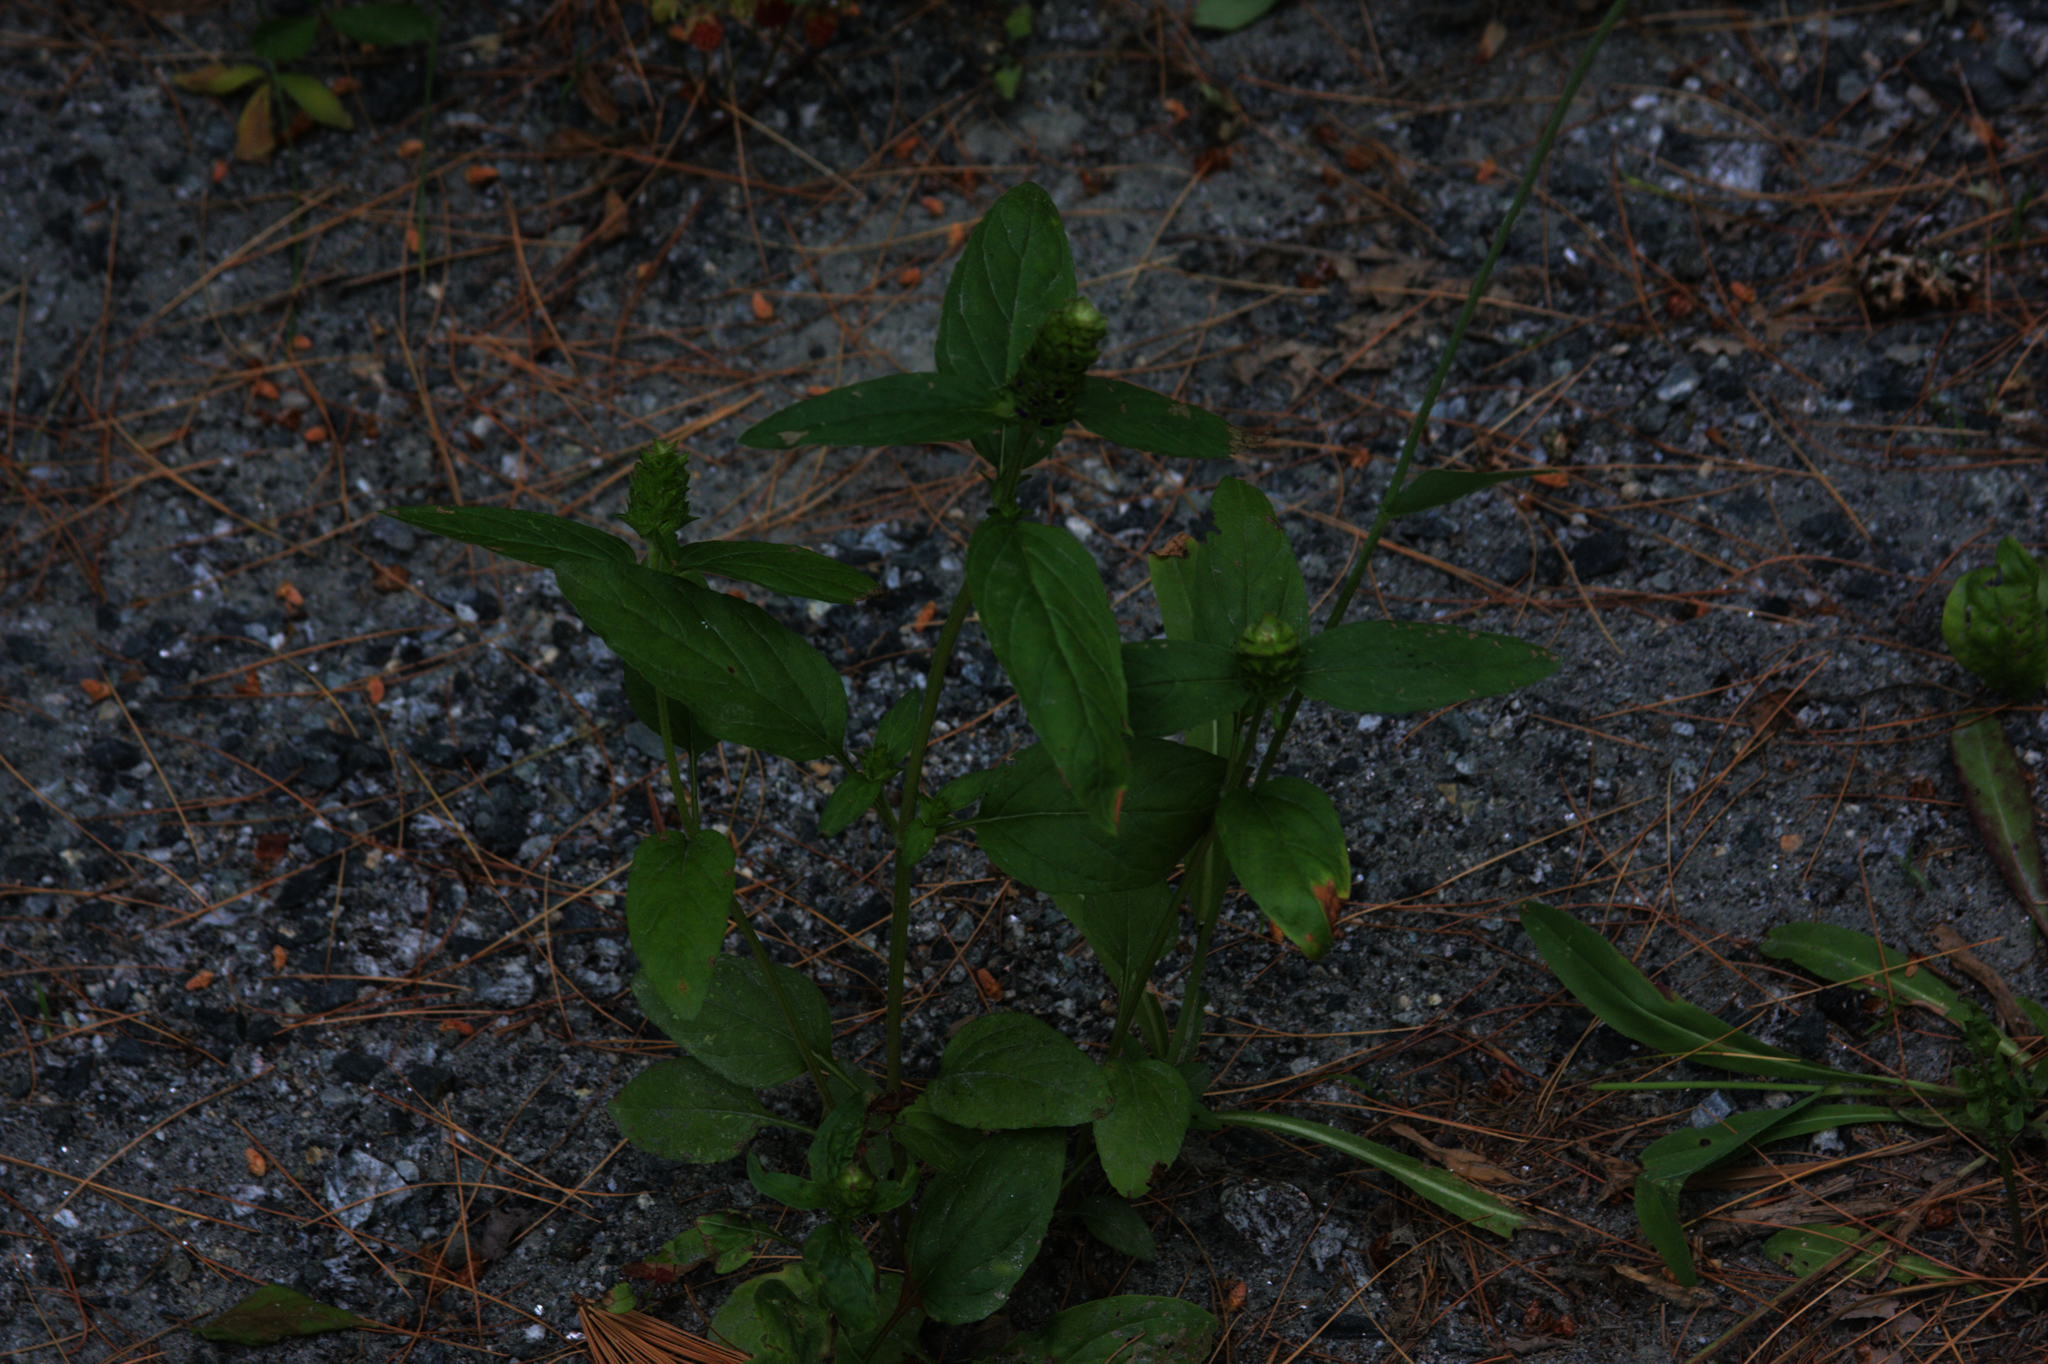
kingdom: Plantae
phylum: Tracheophyta
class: Magnoliopsida
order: Lamiales
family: Lamiaceae
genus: Prunella
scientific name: Prunella vulgaris
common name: Heal-all
